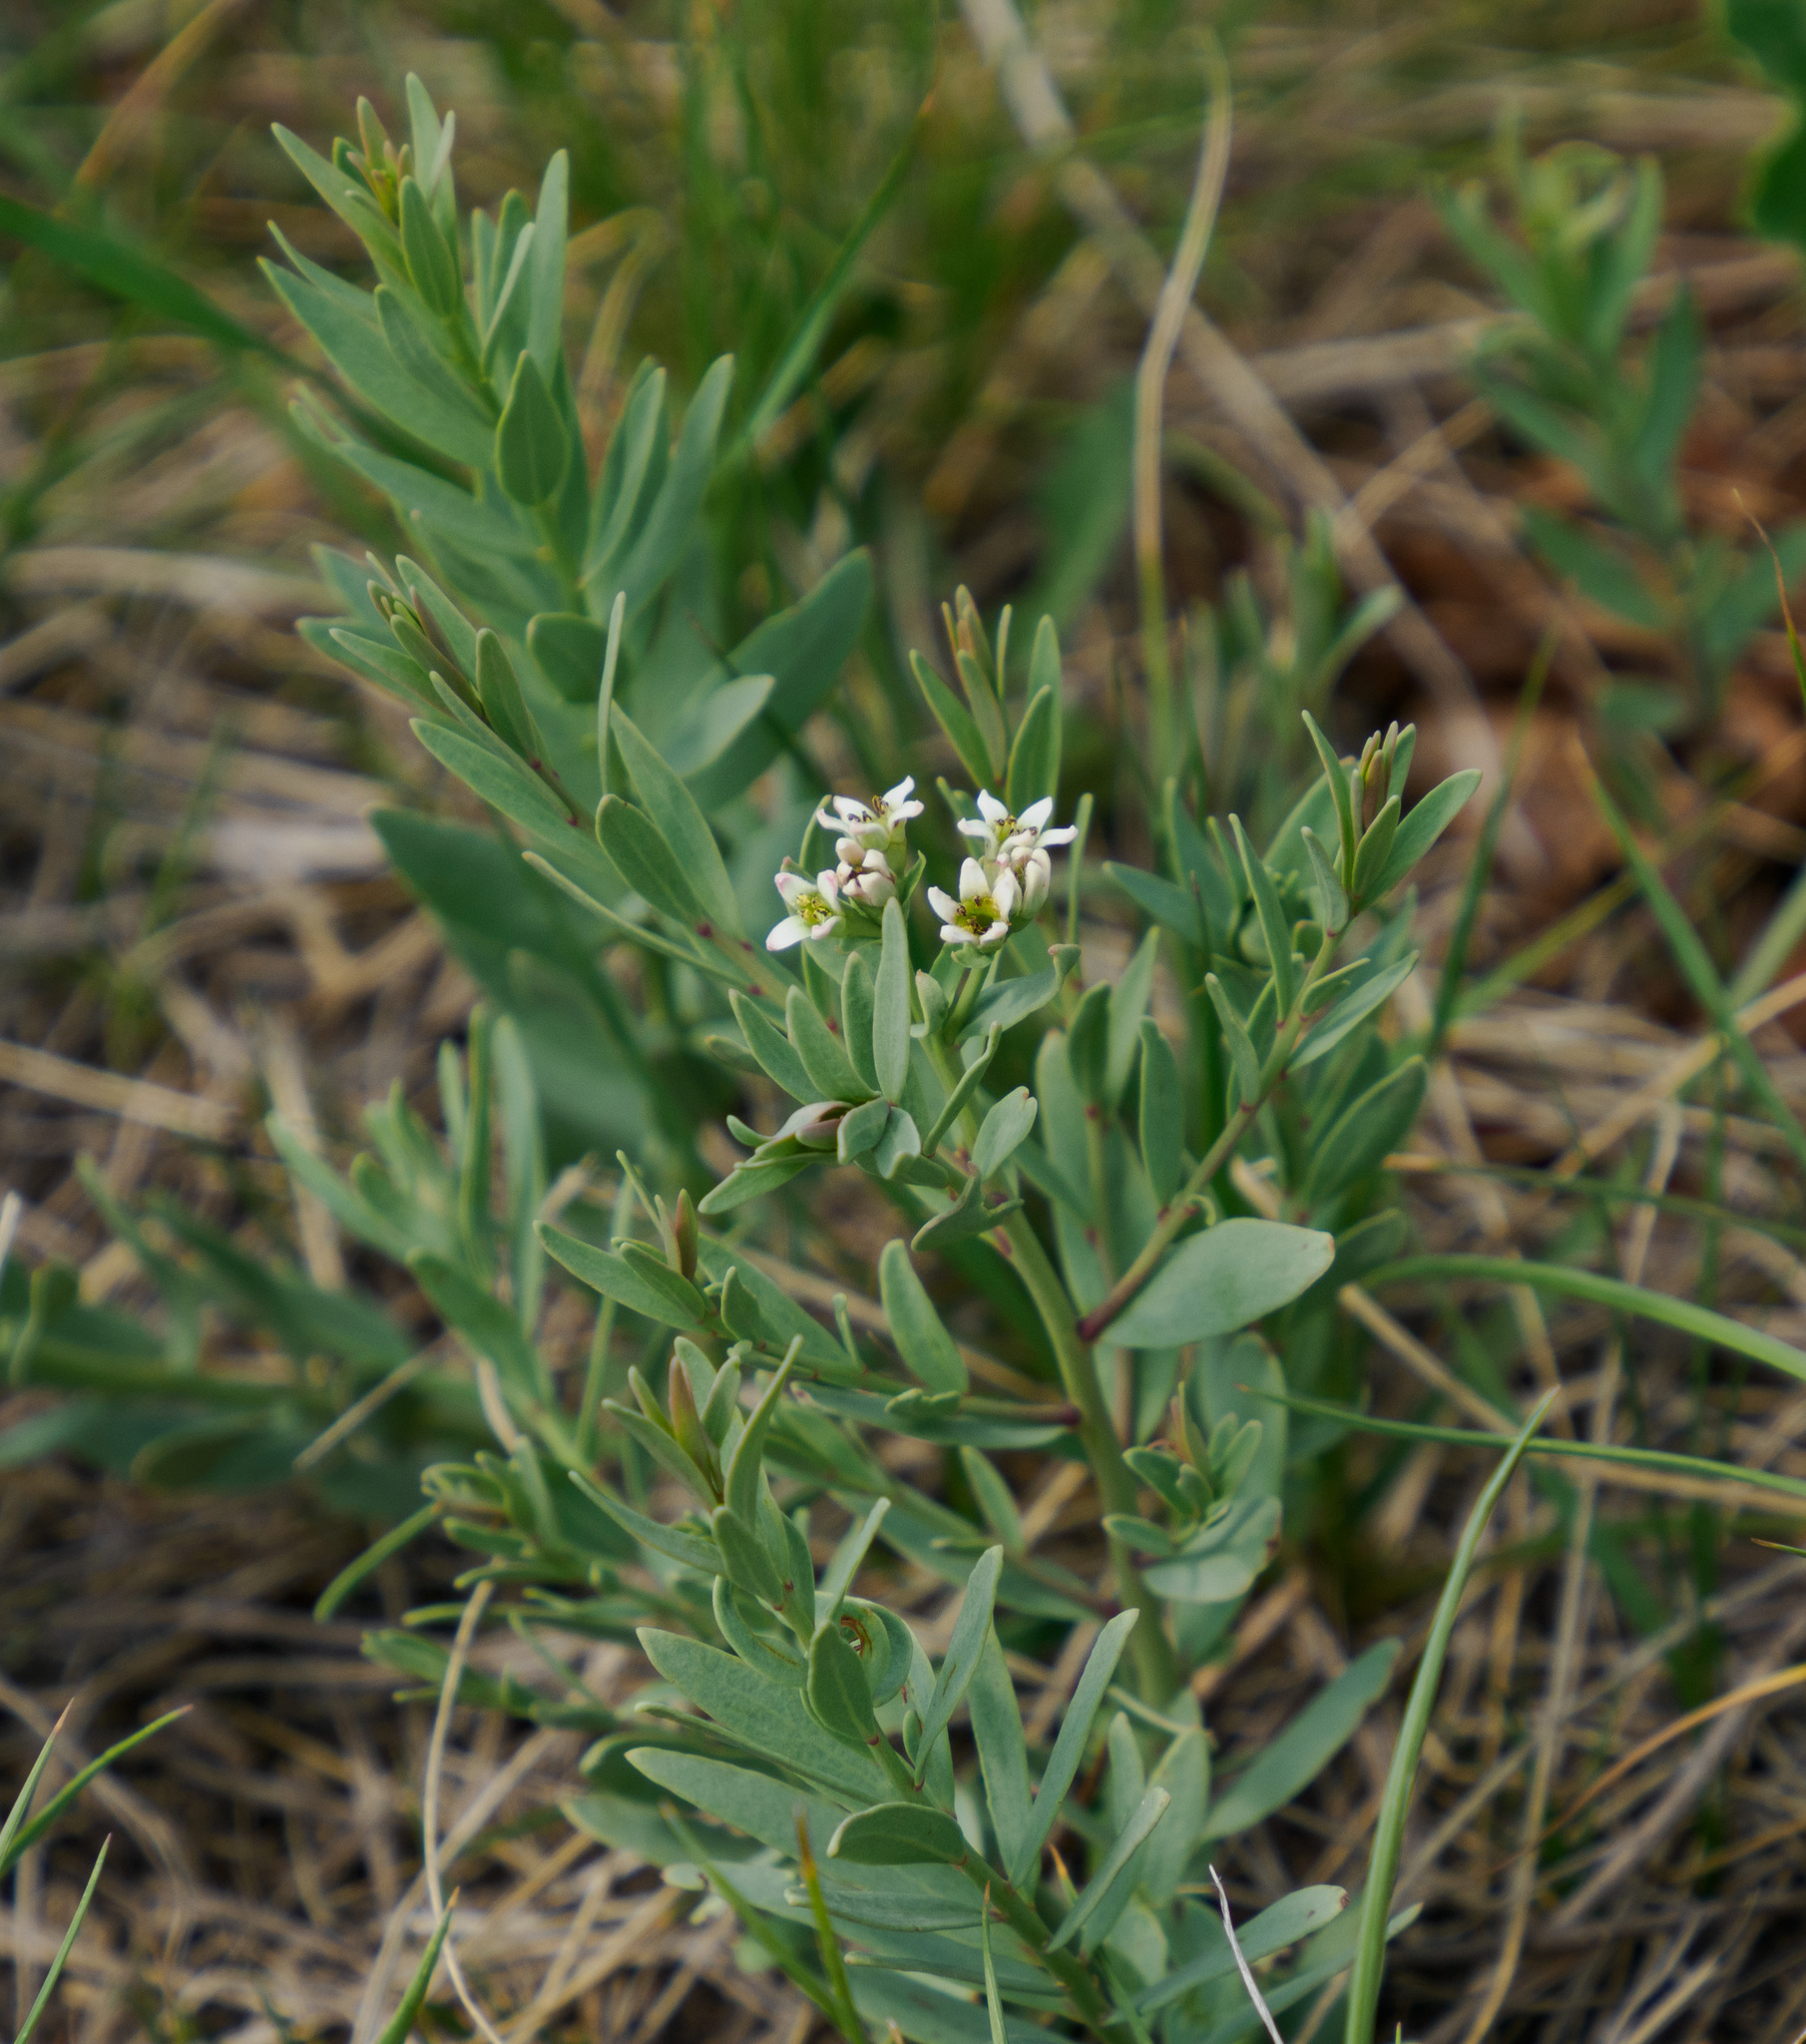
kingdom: Plantae
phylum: Tracheophyta
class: Magnoliopsida
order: Santalales
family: Comandraceae
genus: Comandra
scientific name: Comandra umbellata
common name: Bastard toadflax
